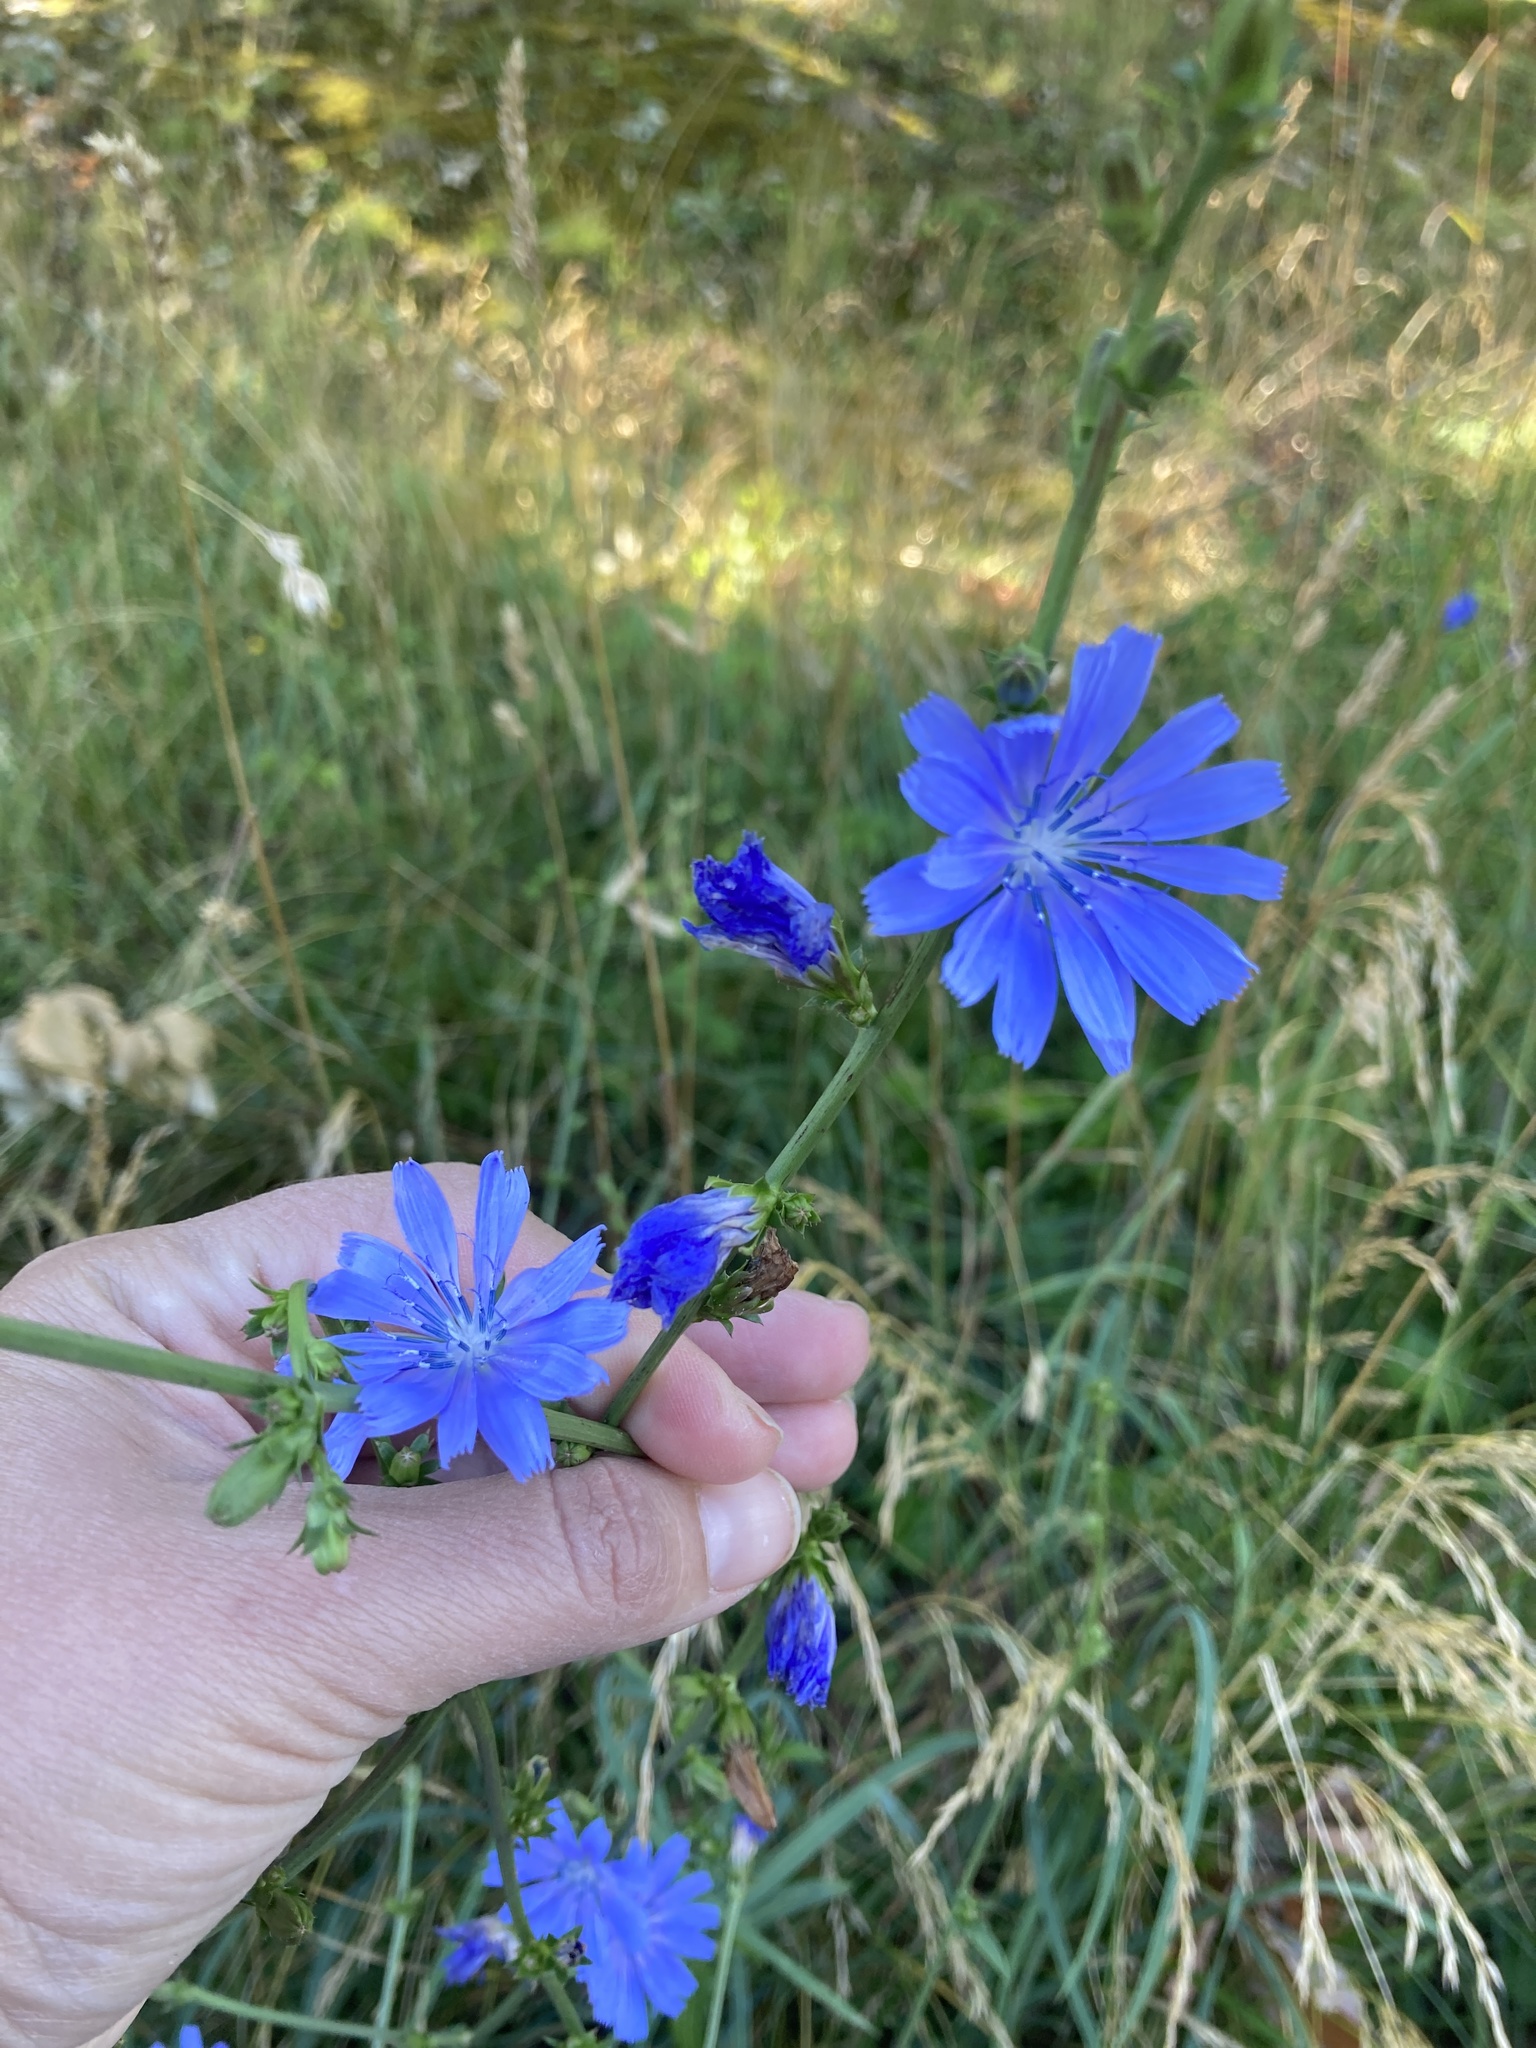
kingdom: Plantae
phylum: Tracheophyta
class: Magnoliopsida
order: Asterales
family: Asteraceae
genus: Cichorium
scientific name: Cichorium intybus
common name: Chicory
